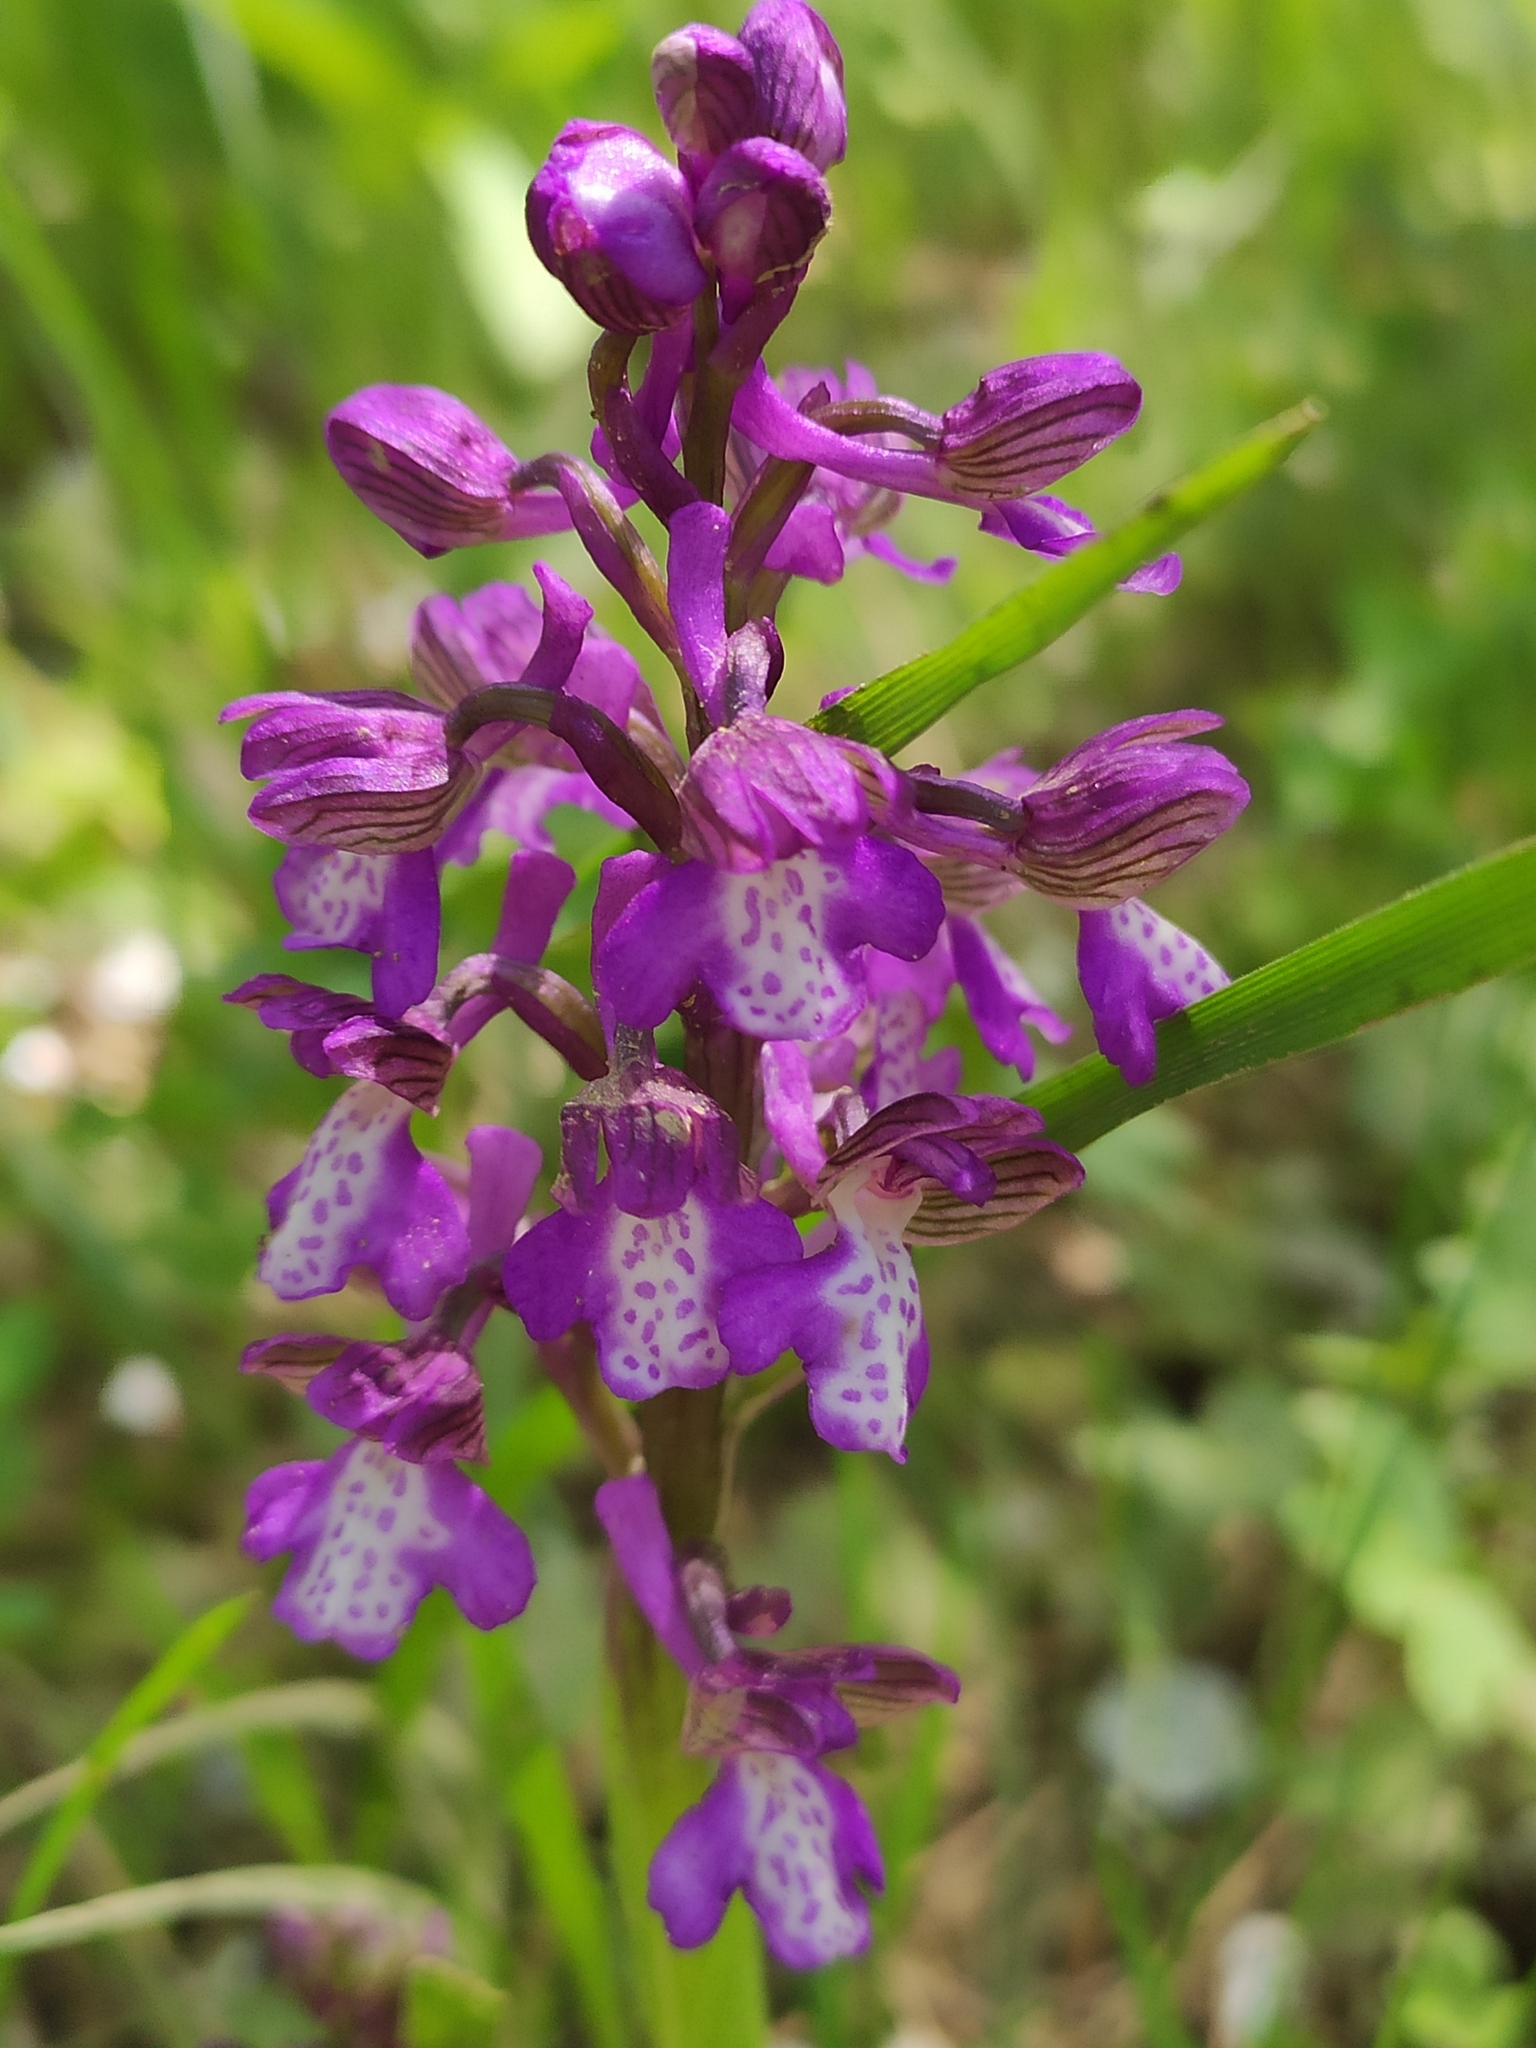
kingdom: Plantae
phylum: Tracheophyta
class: Liliopsida
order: Asparagales
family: Orchidaceae
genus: Anacamptis
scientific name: Anacamptis morio
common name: Green-winged orchid
